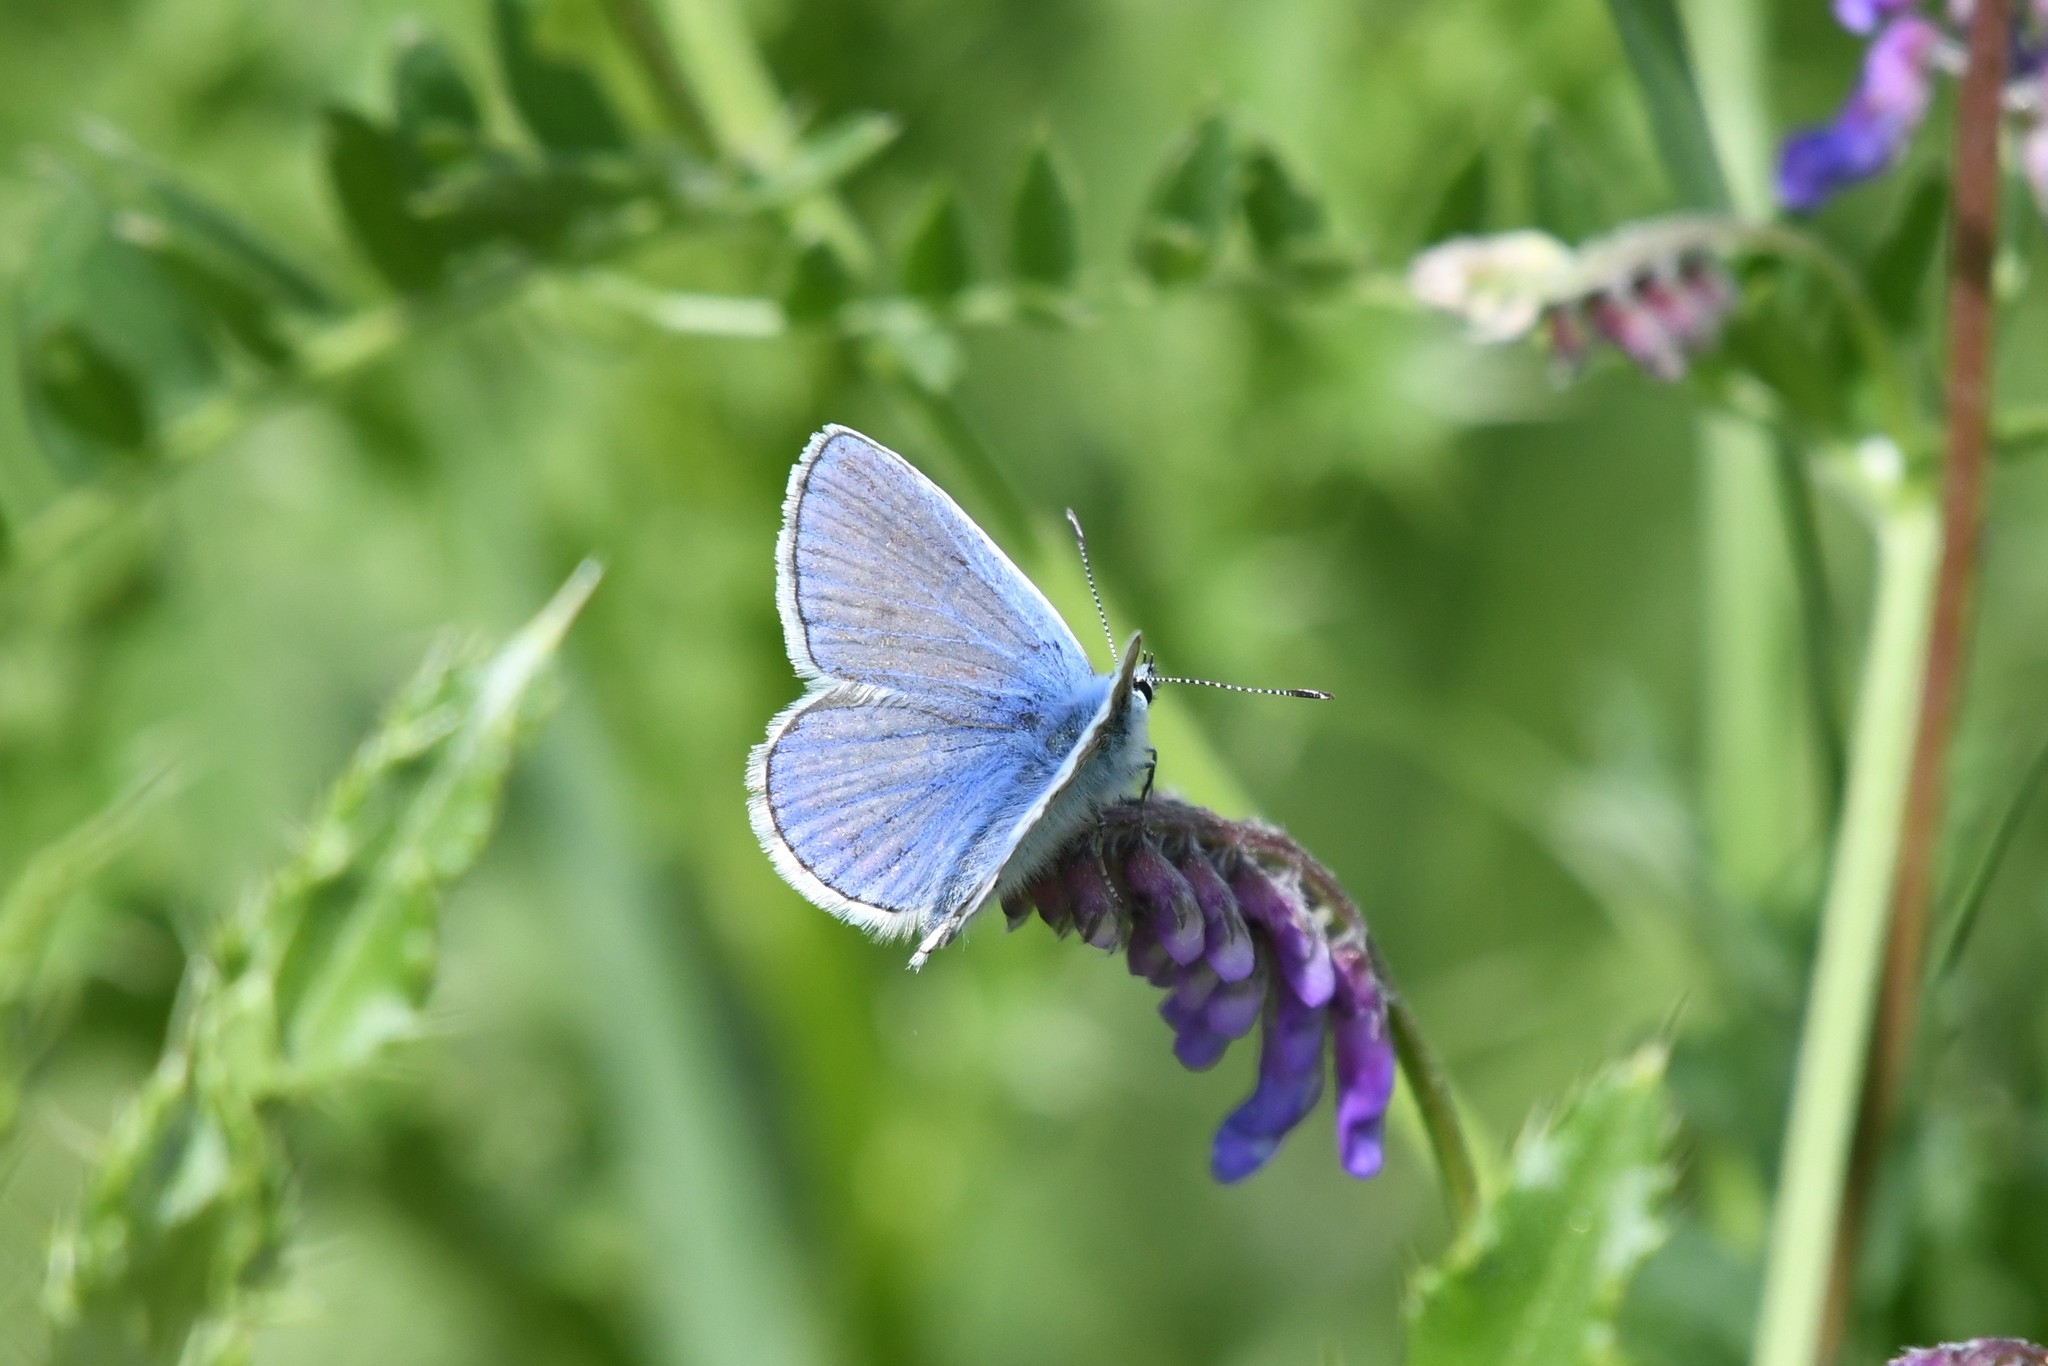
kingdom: Animalia
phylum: Arthropoda
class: Insecta
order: Lepidoptera
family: Lycaenidae
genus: Polyommatus
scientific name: Polyommatus icarus
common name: Common blue
